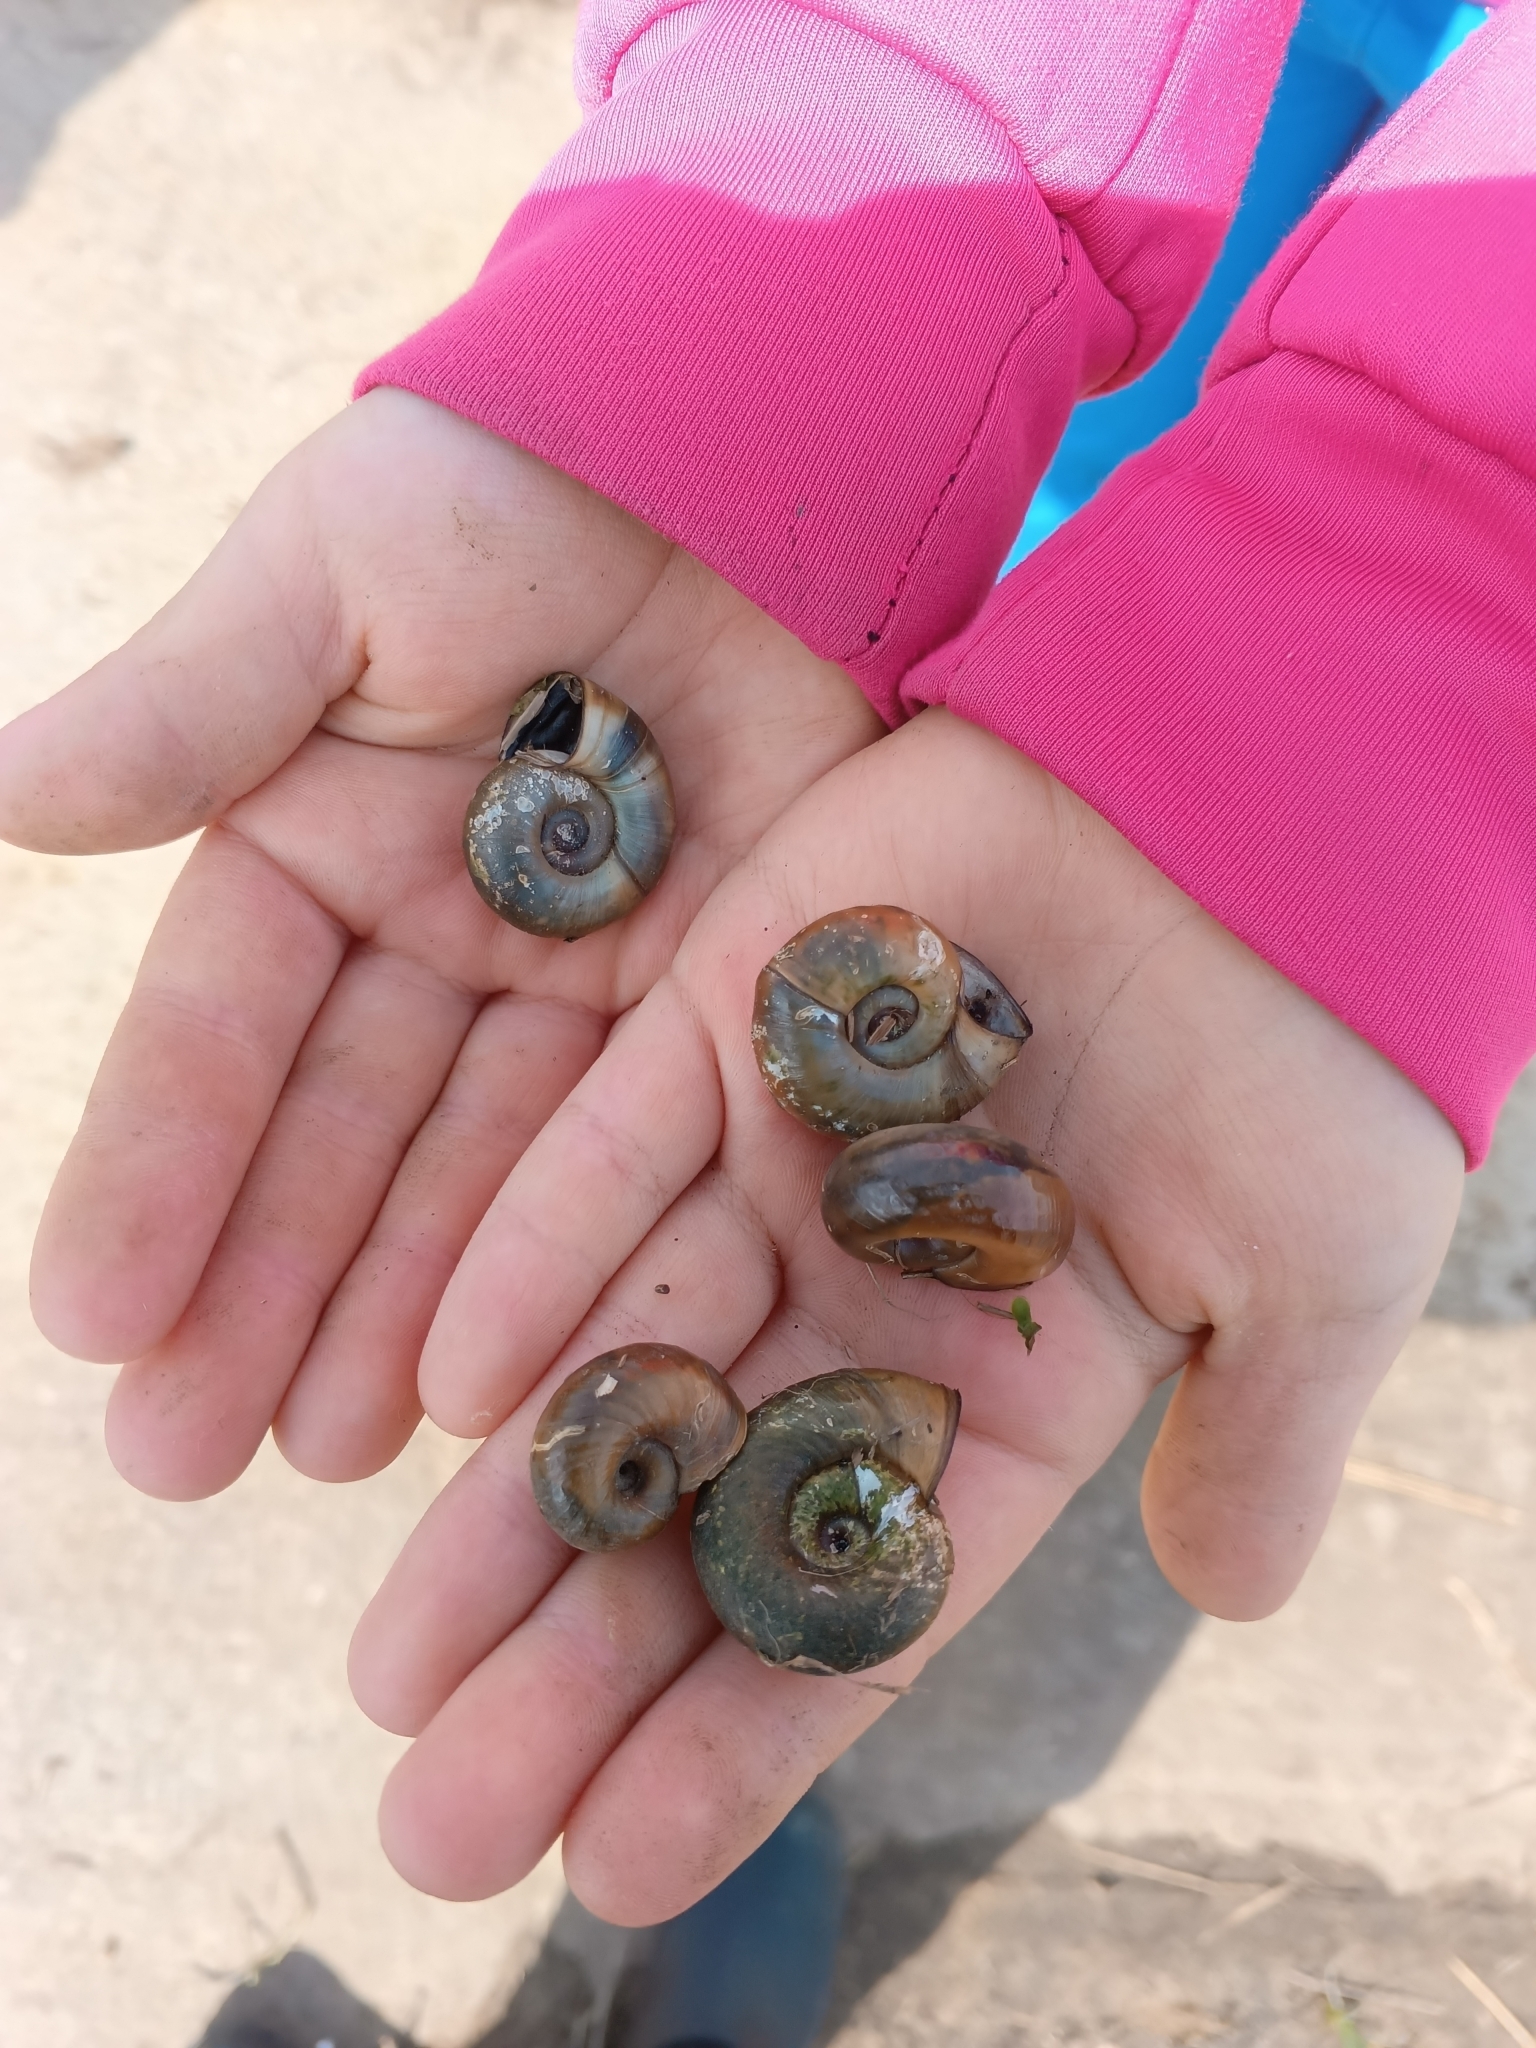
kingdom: Animalia
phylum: Mollusca
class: Gastropoda
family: Planorbidae
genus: Planorbarius
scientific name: Planorbarius corneus
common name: Great ramshorn
